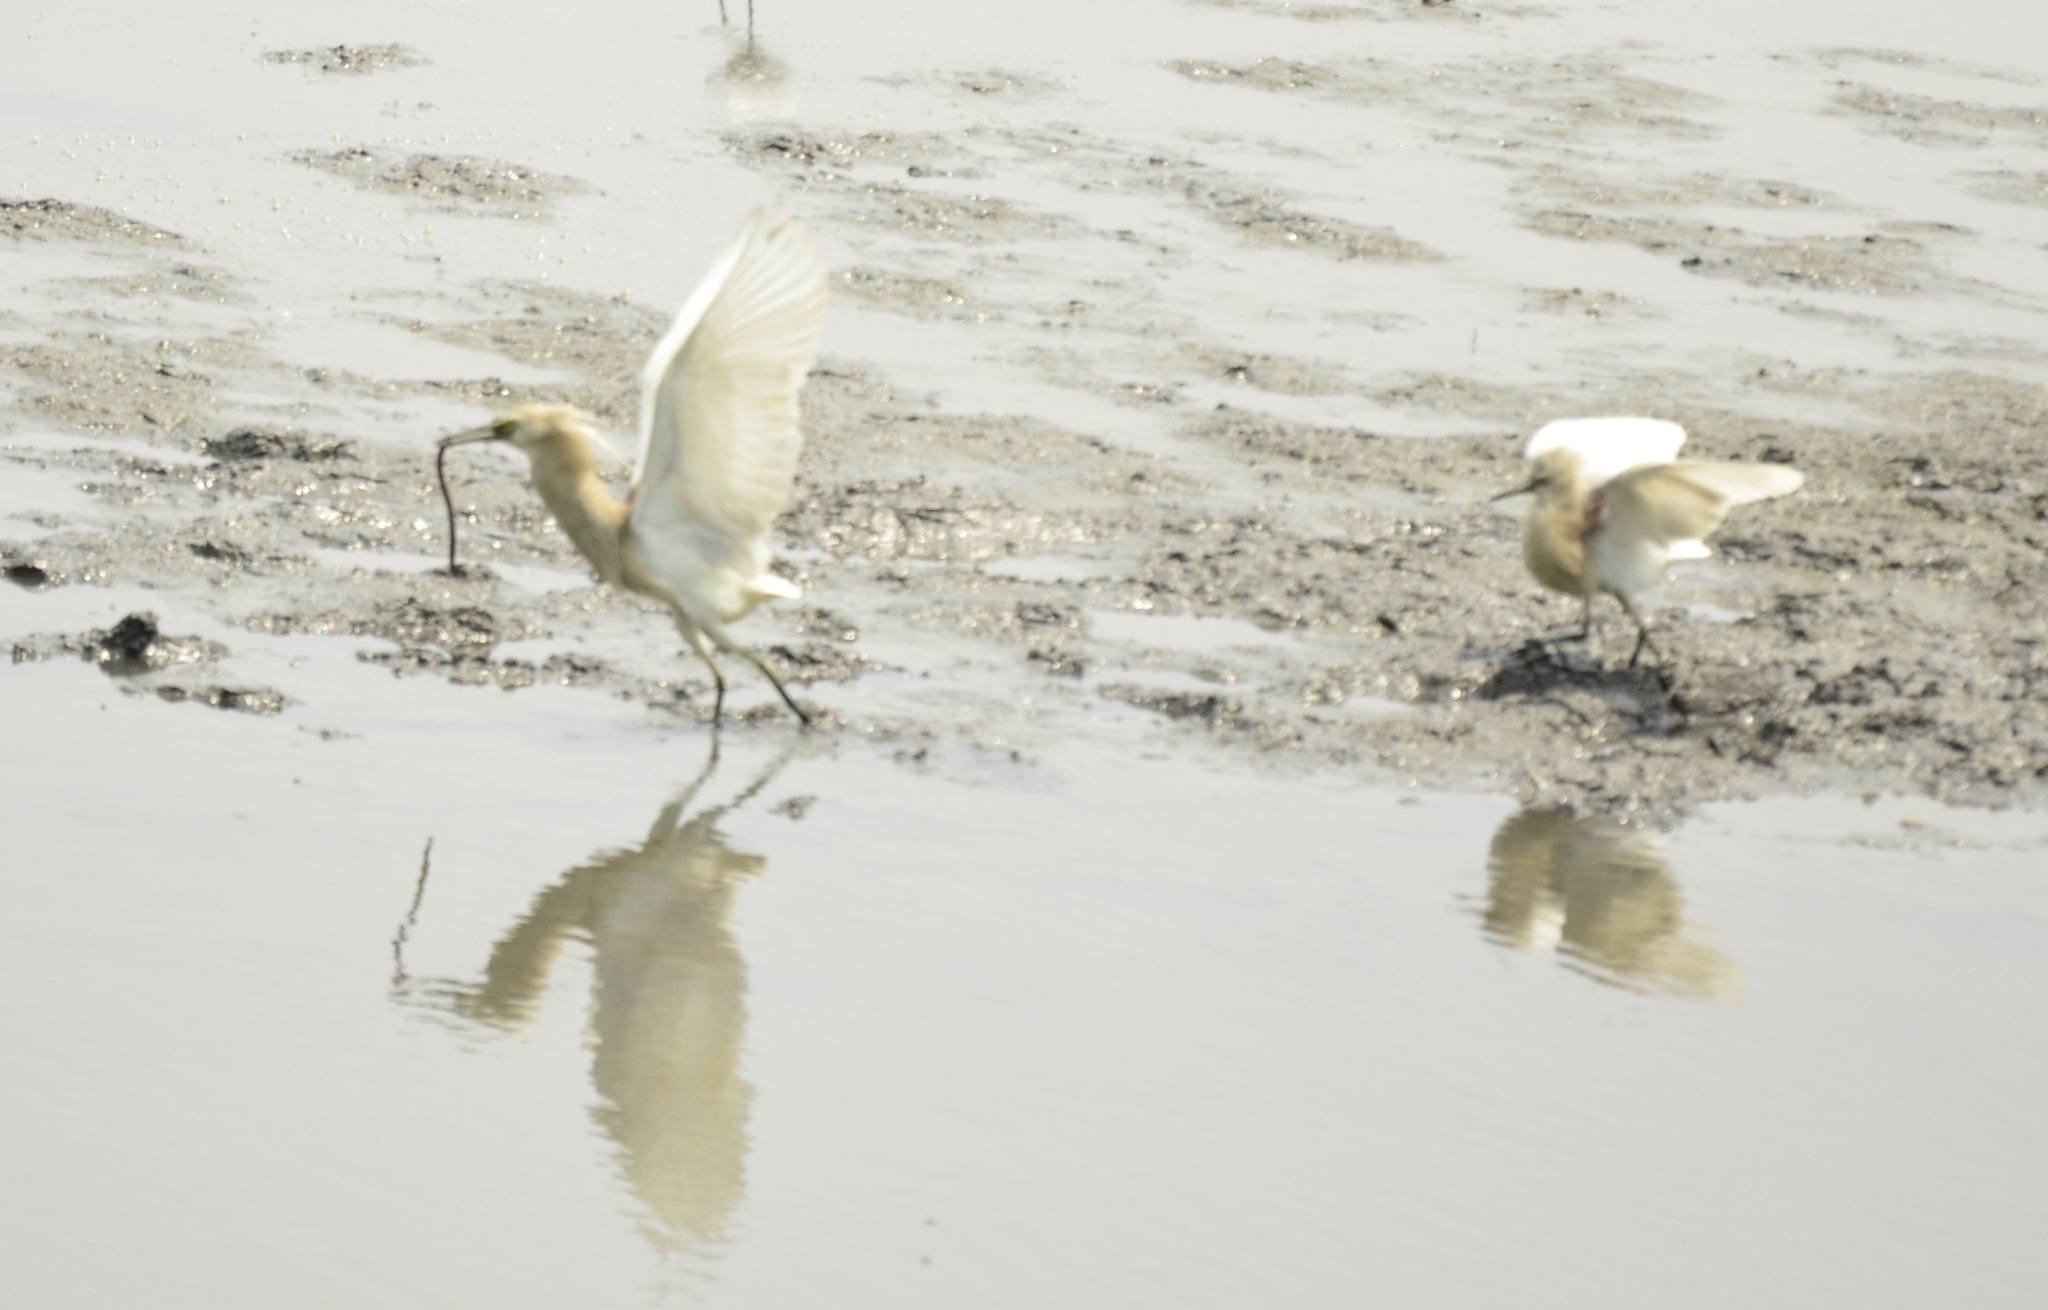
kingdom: Animalia
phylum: Chordata
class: Aves
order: Pelecaniformes
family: Ardeidae
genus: Ardeola
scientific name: Ardeola grayii
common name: Indian pond heron
